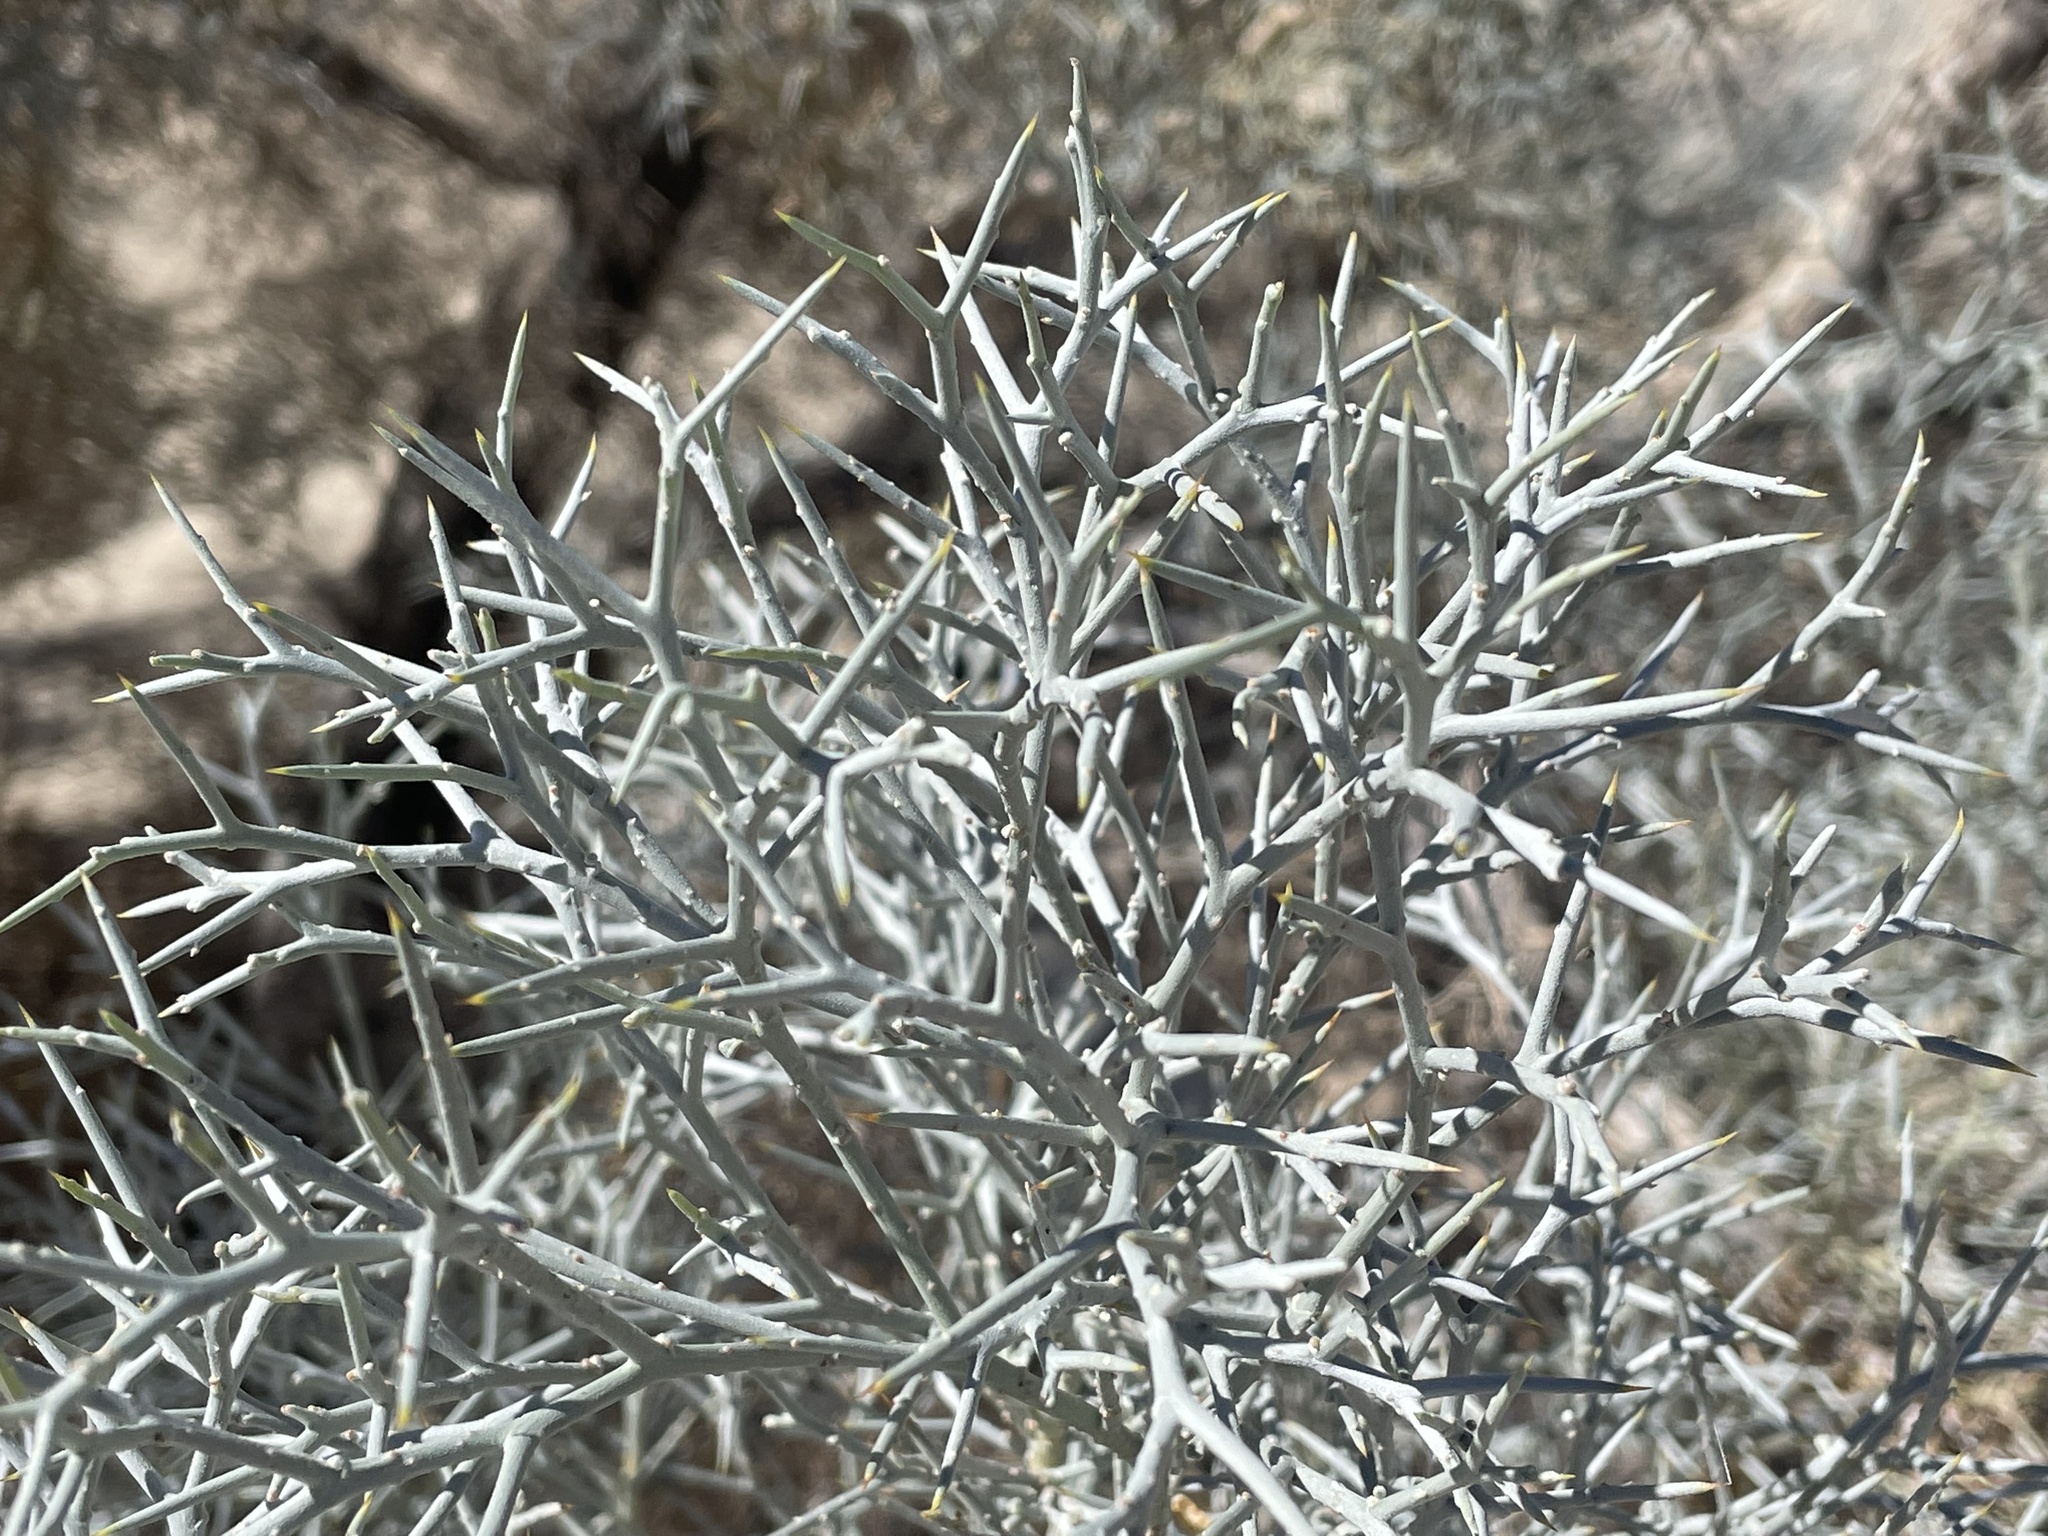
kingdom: Plantae
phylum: Tracheophyta
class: Magnoliopsida
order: Fabales
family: Fabaceae
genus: Psorothamnus
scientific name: Psorothamnus spinosus
